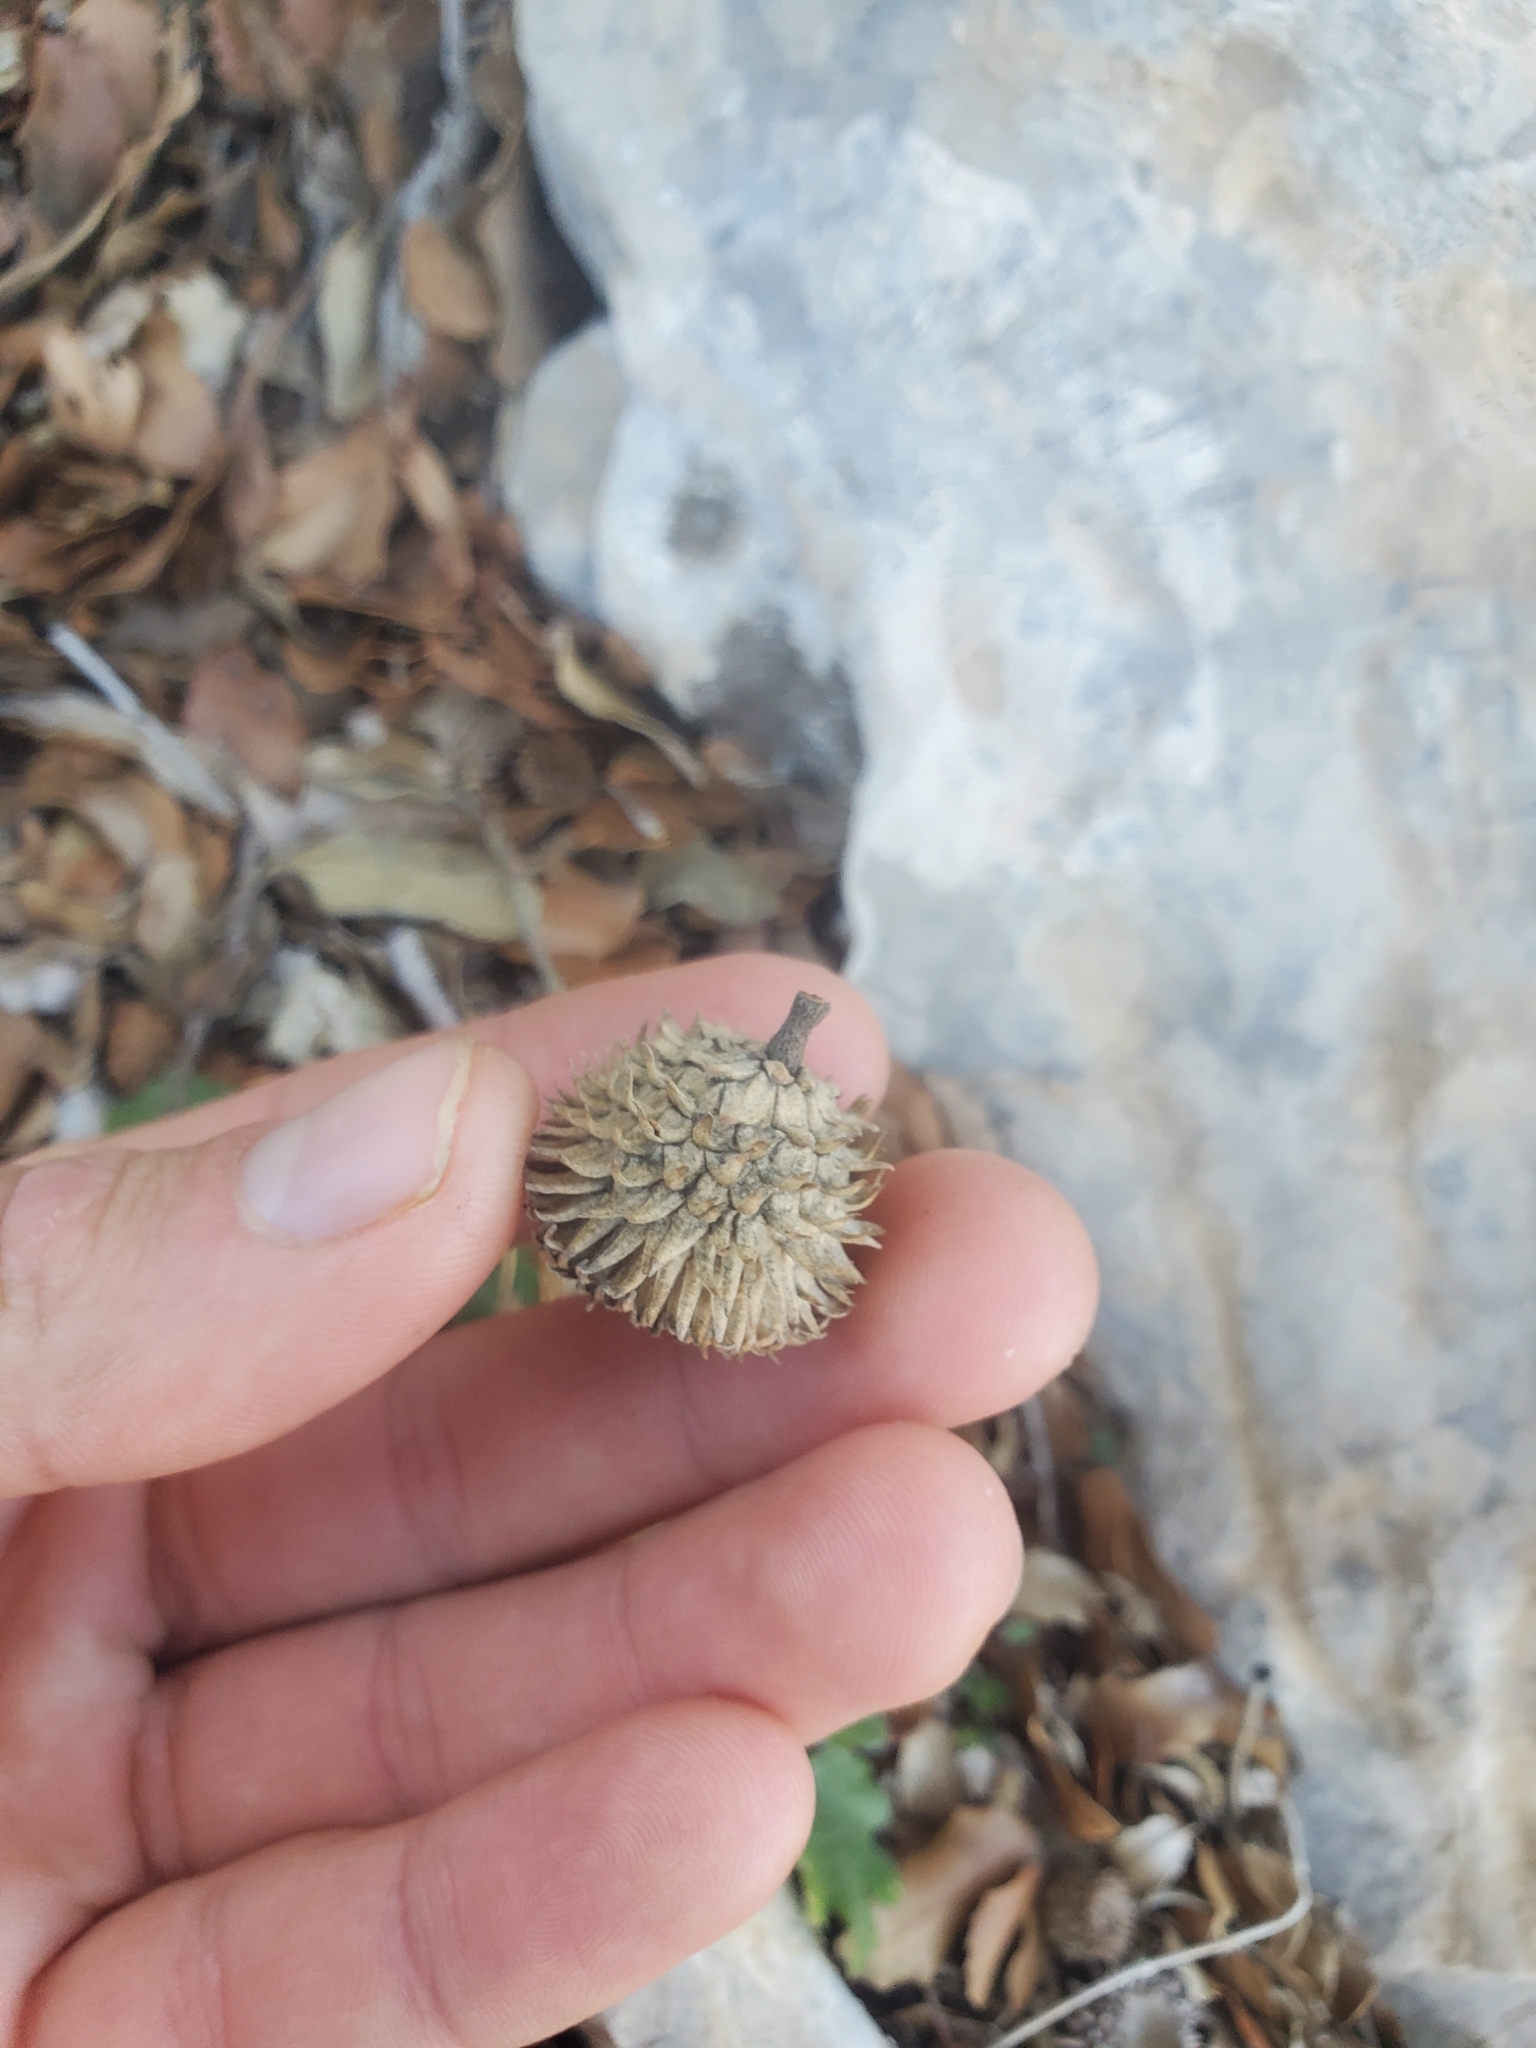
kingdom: Plantae
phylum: Tracheophyta
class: Magnoliopsida
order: Fagales
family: Fagaceae
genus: Quercus
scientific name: Quercus coccifera
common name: Kermes oak
